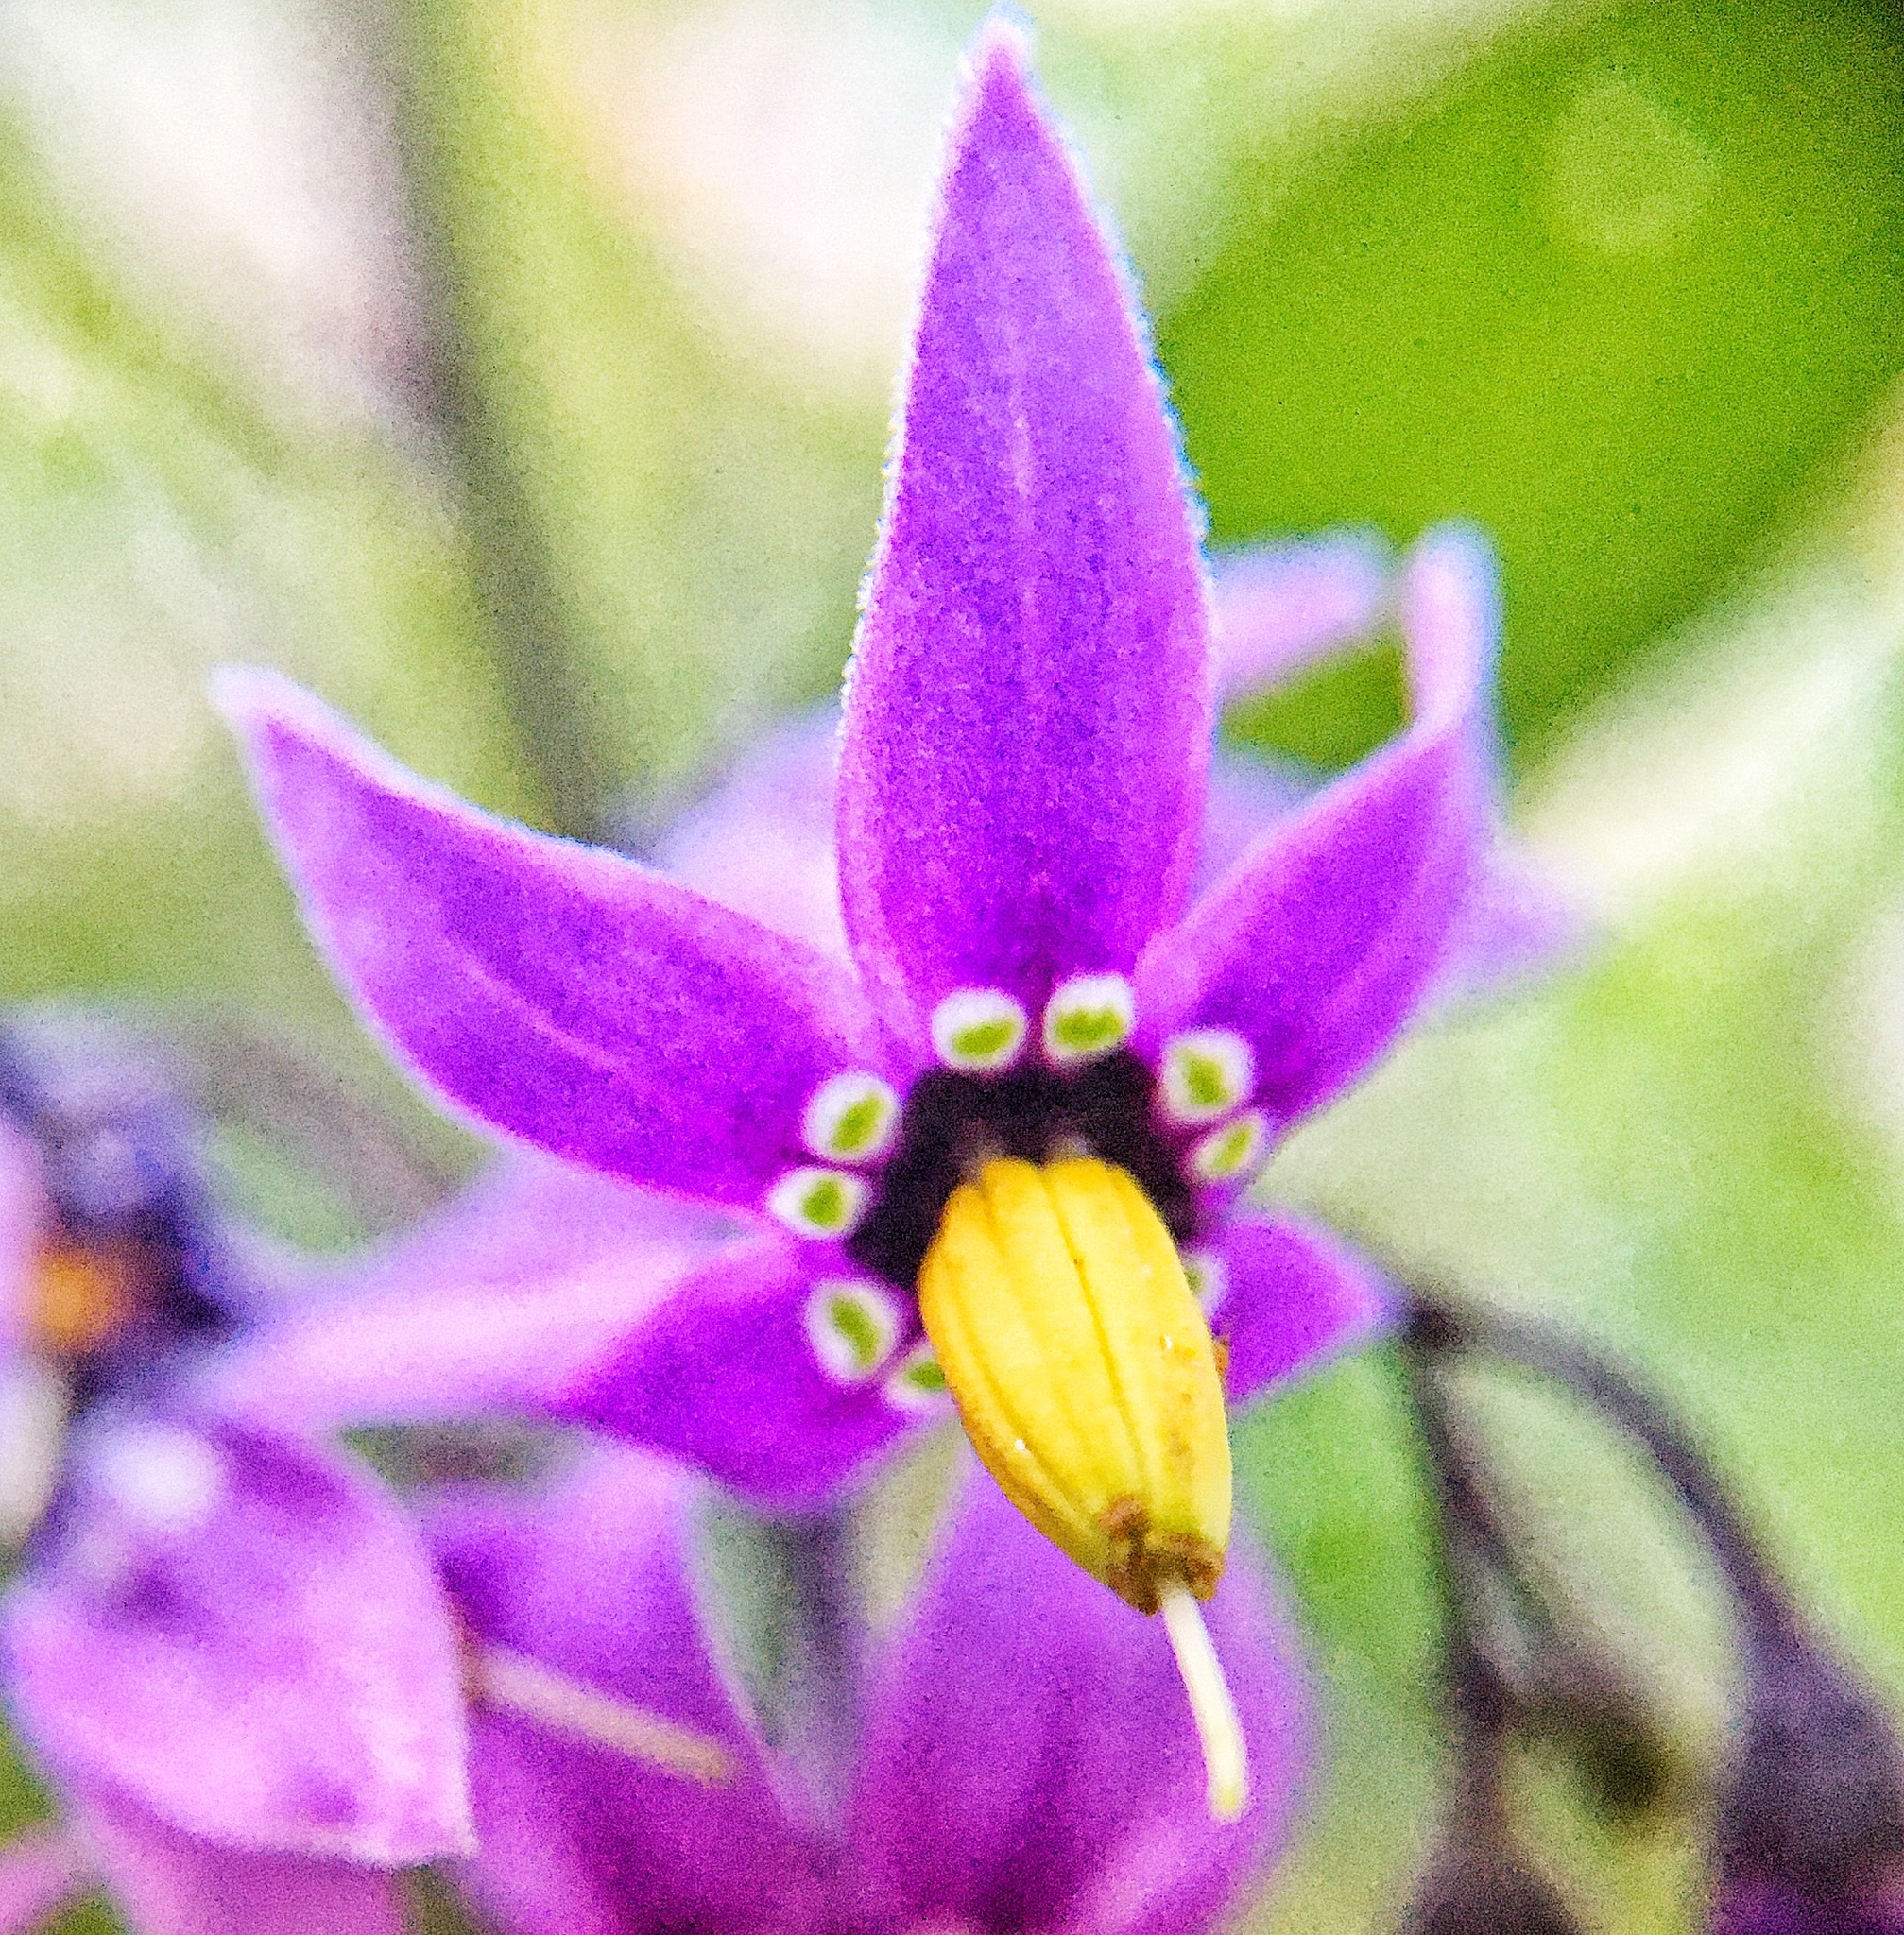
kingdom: Plantae
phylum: Tracheophyta
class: Magnoliopsida
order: Solanales
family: Solanaceae
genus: Solanum
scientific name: Solanum dulcamara
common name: Climbing nightshade
